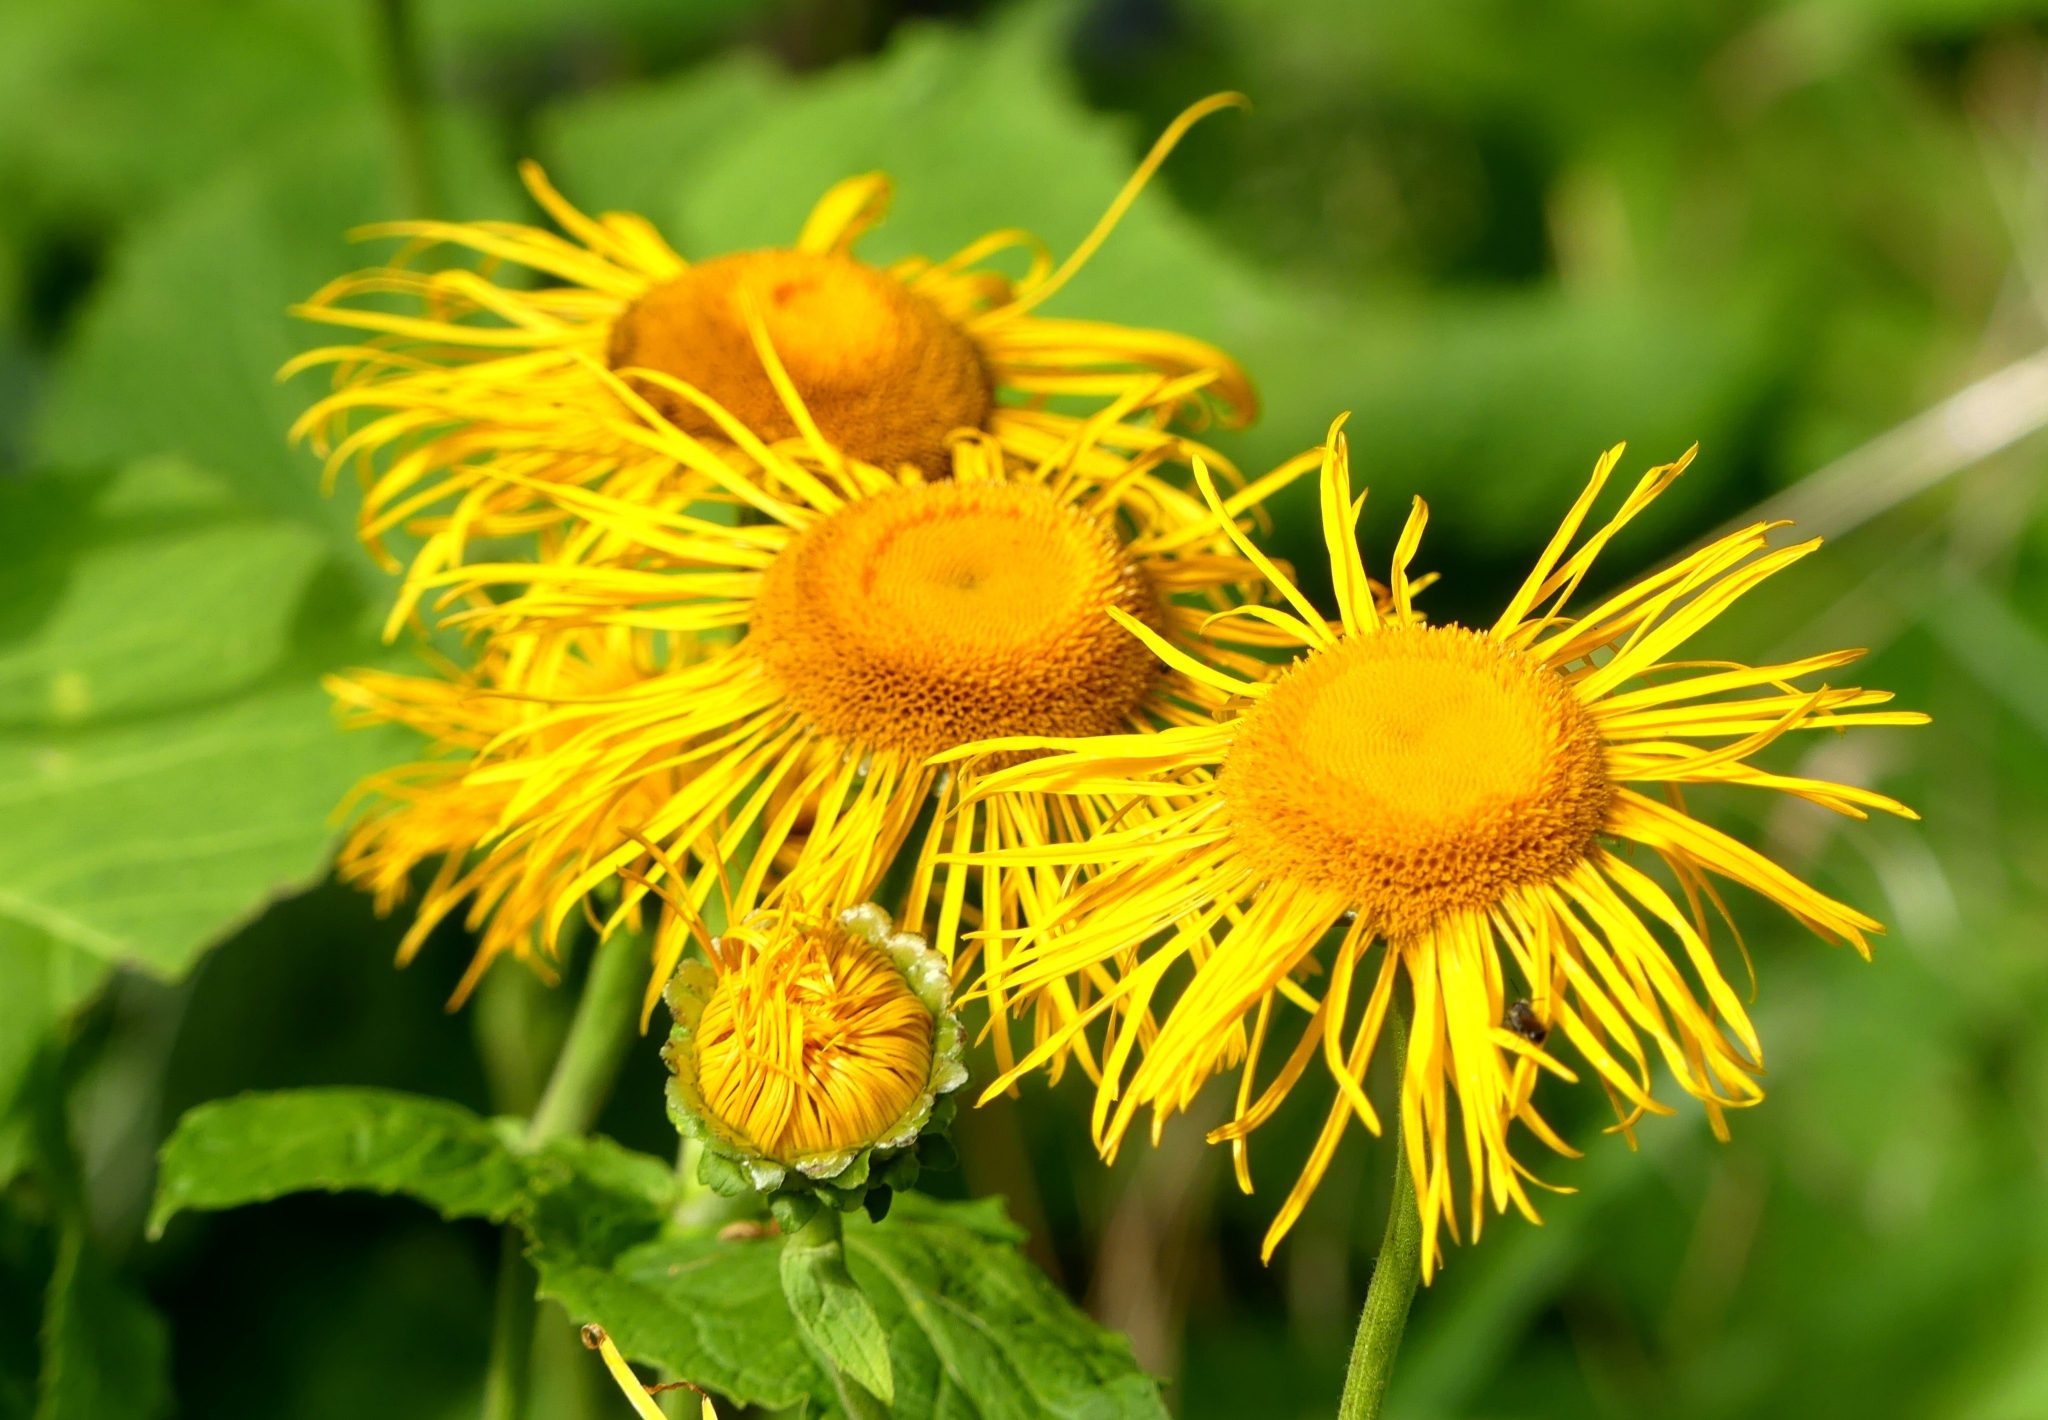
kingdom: Plantae
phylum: Tracheophyta
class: Magnoliopsida
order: Asterales
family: Asteraceae
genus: Telekia
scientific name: Telekia speciosa
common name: Yellow oxeye
